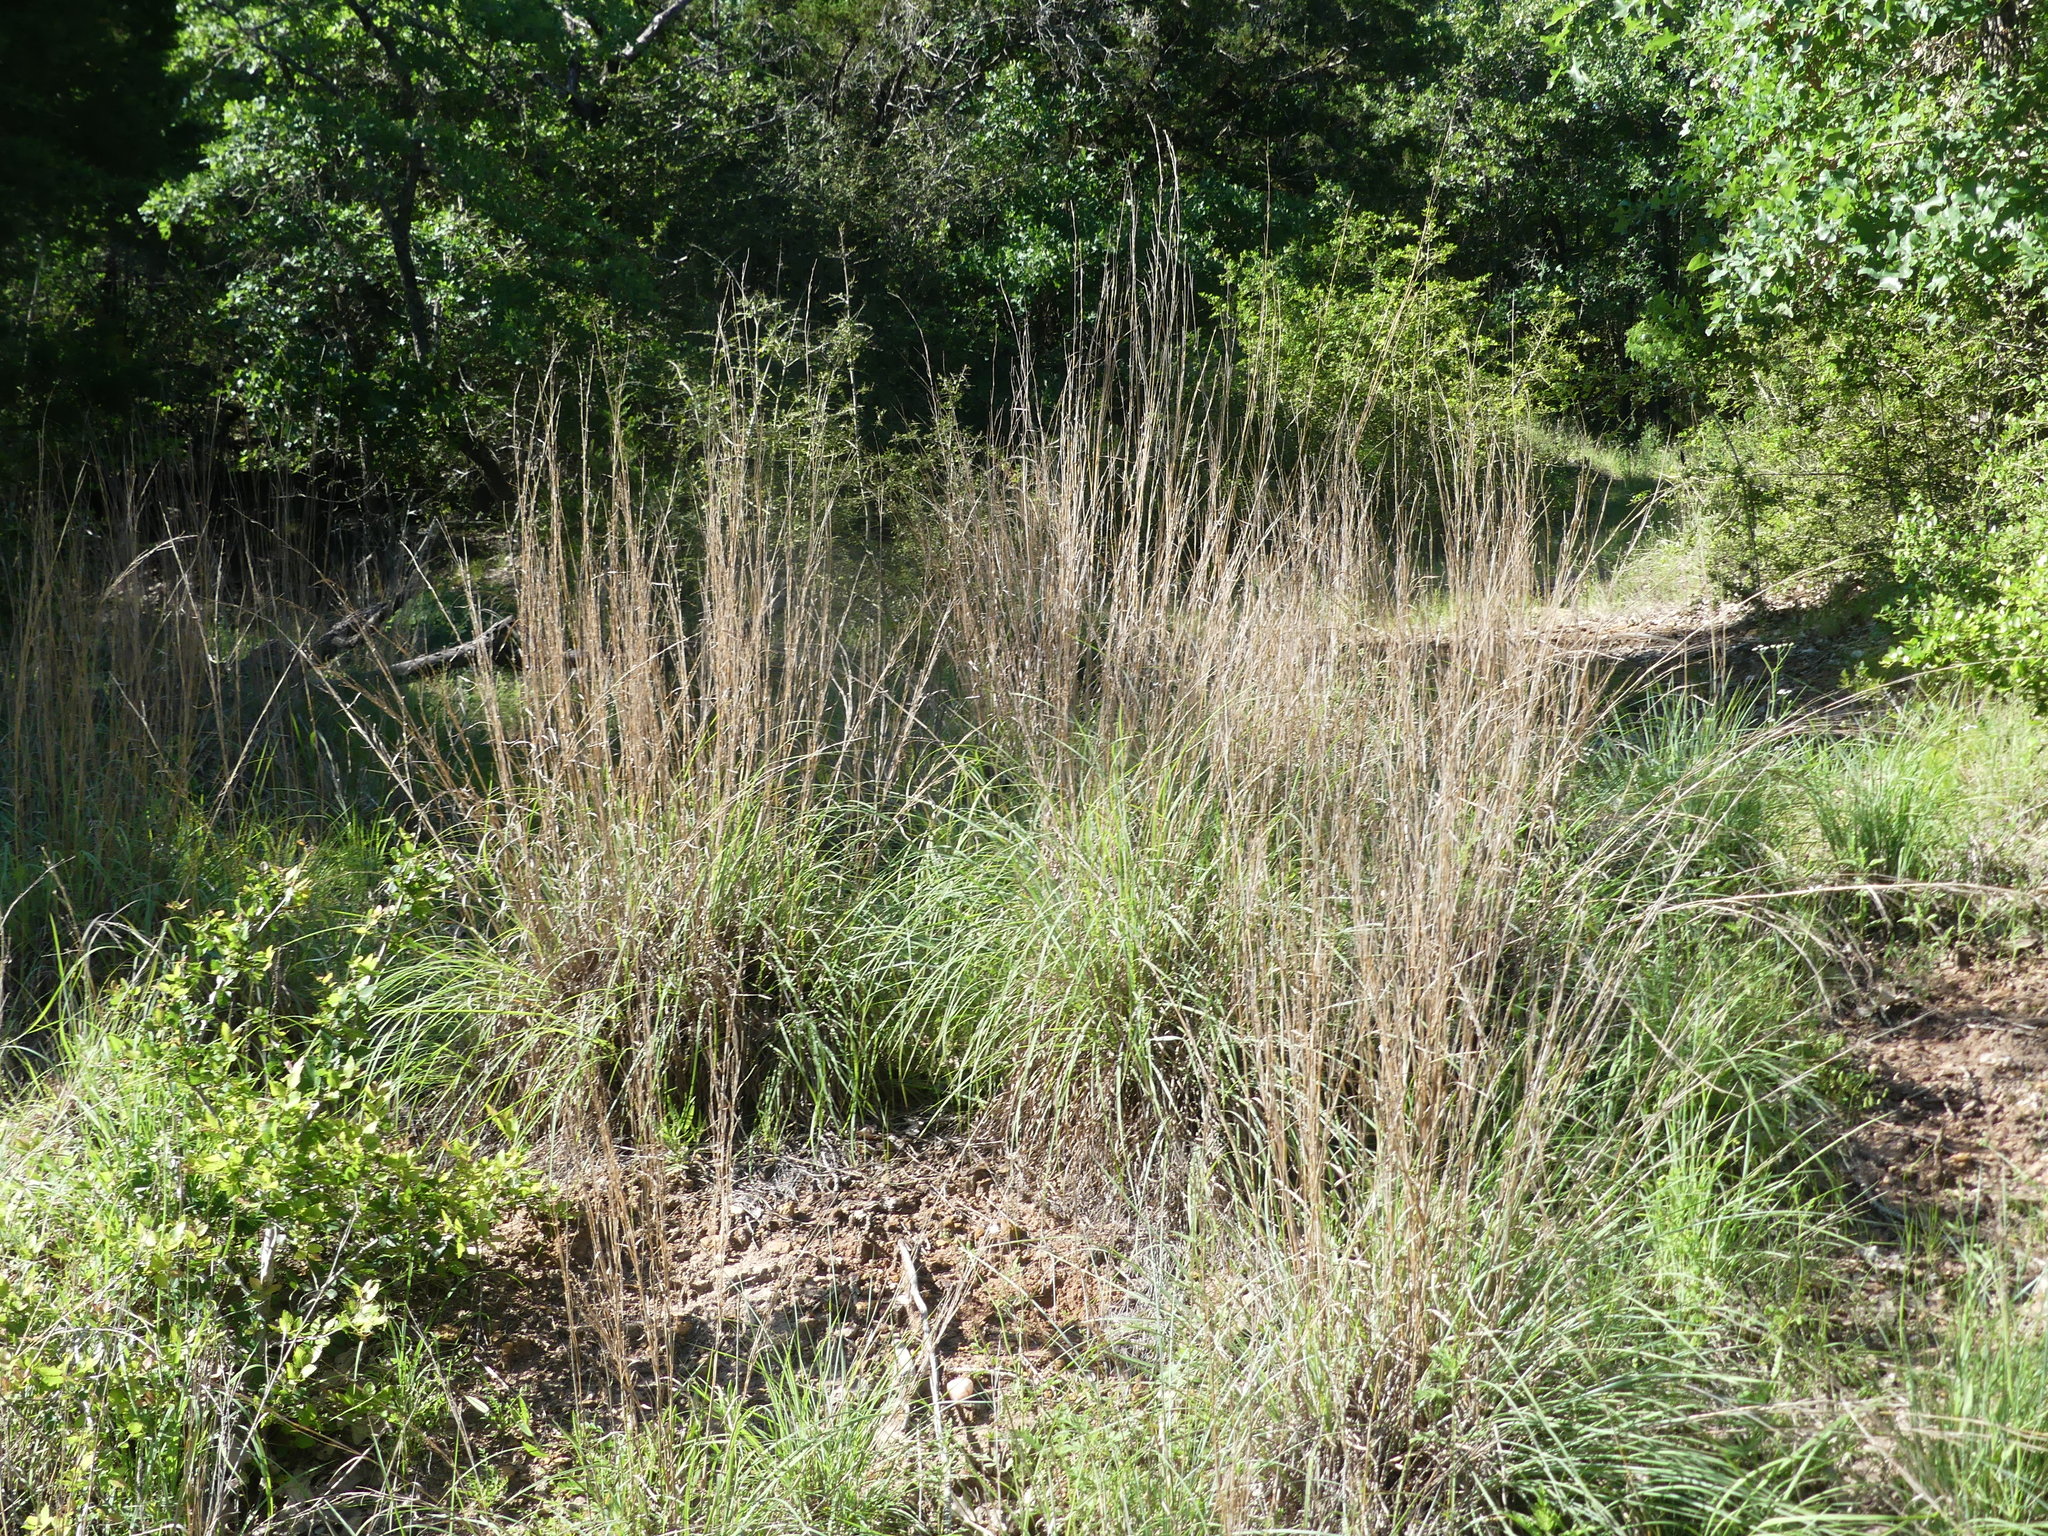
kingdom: Plantae
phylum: Tracheophyta
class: Liliopsida
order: Poales
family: Poaceae
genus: Schizachyrium
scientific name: Schizachyrium scoparium
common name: Little bluestem
